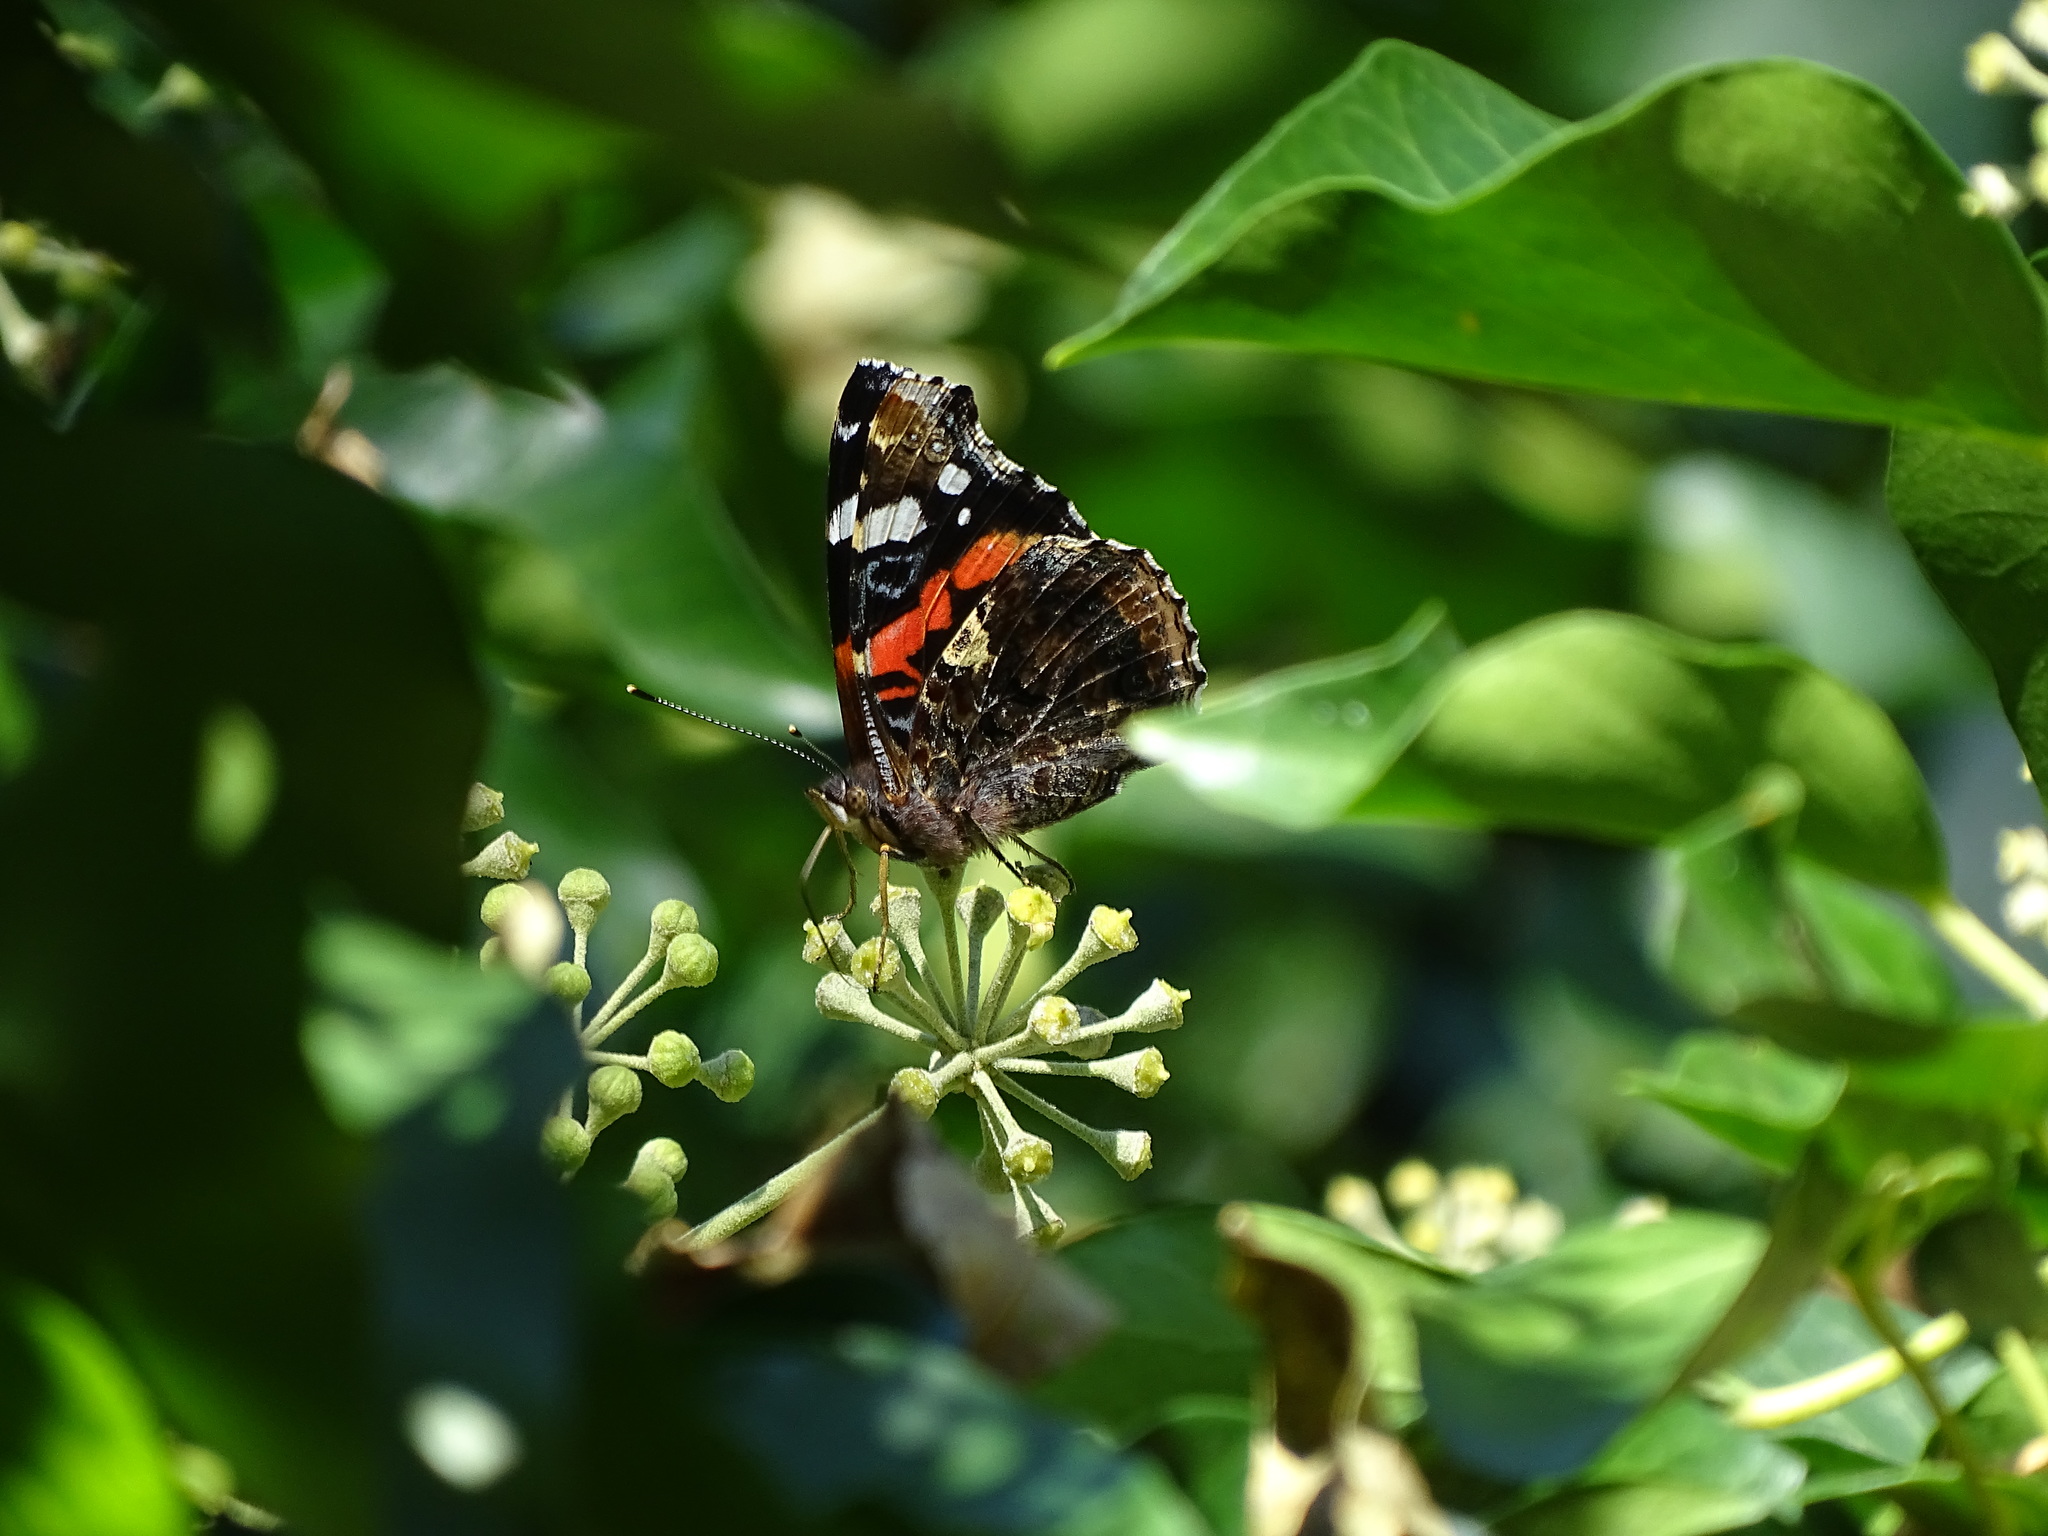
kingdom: Animalia
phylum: Arthropoda
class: Insecta
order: Lepidoptera
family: Nymphalidae
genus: Vanessa
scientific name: Vanessa atalanta
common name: Red admiral
